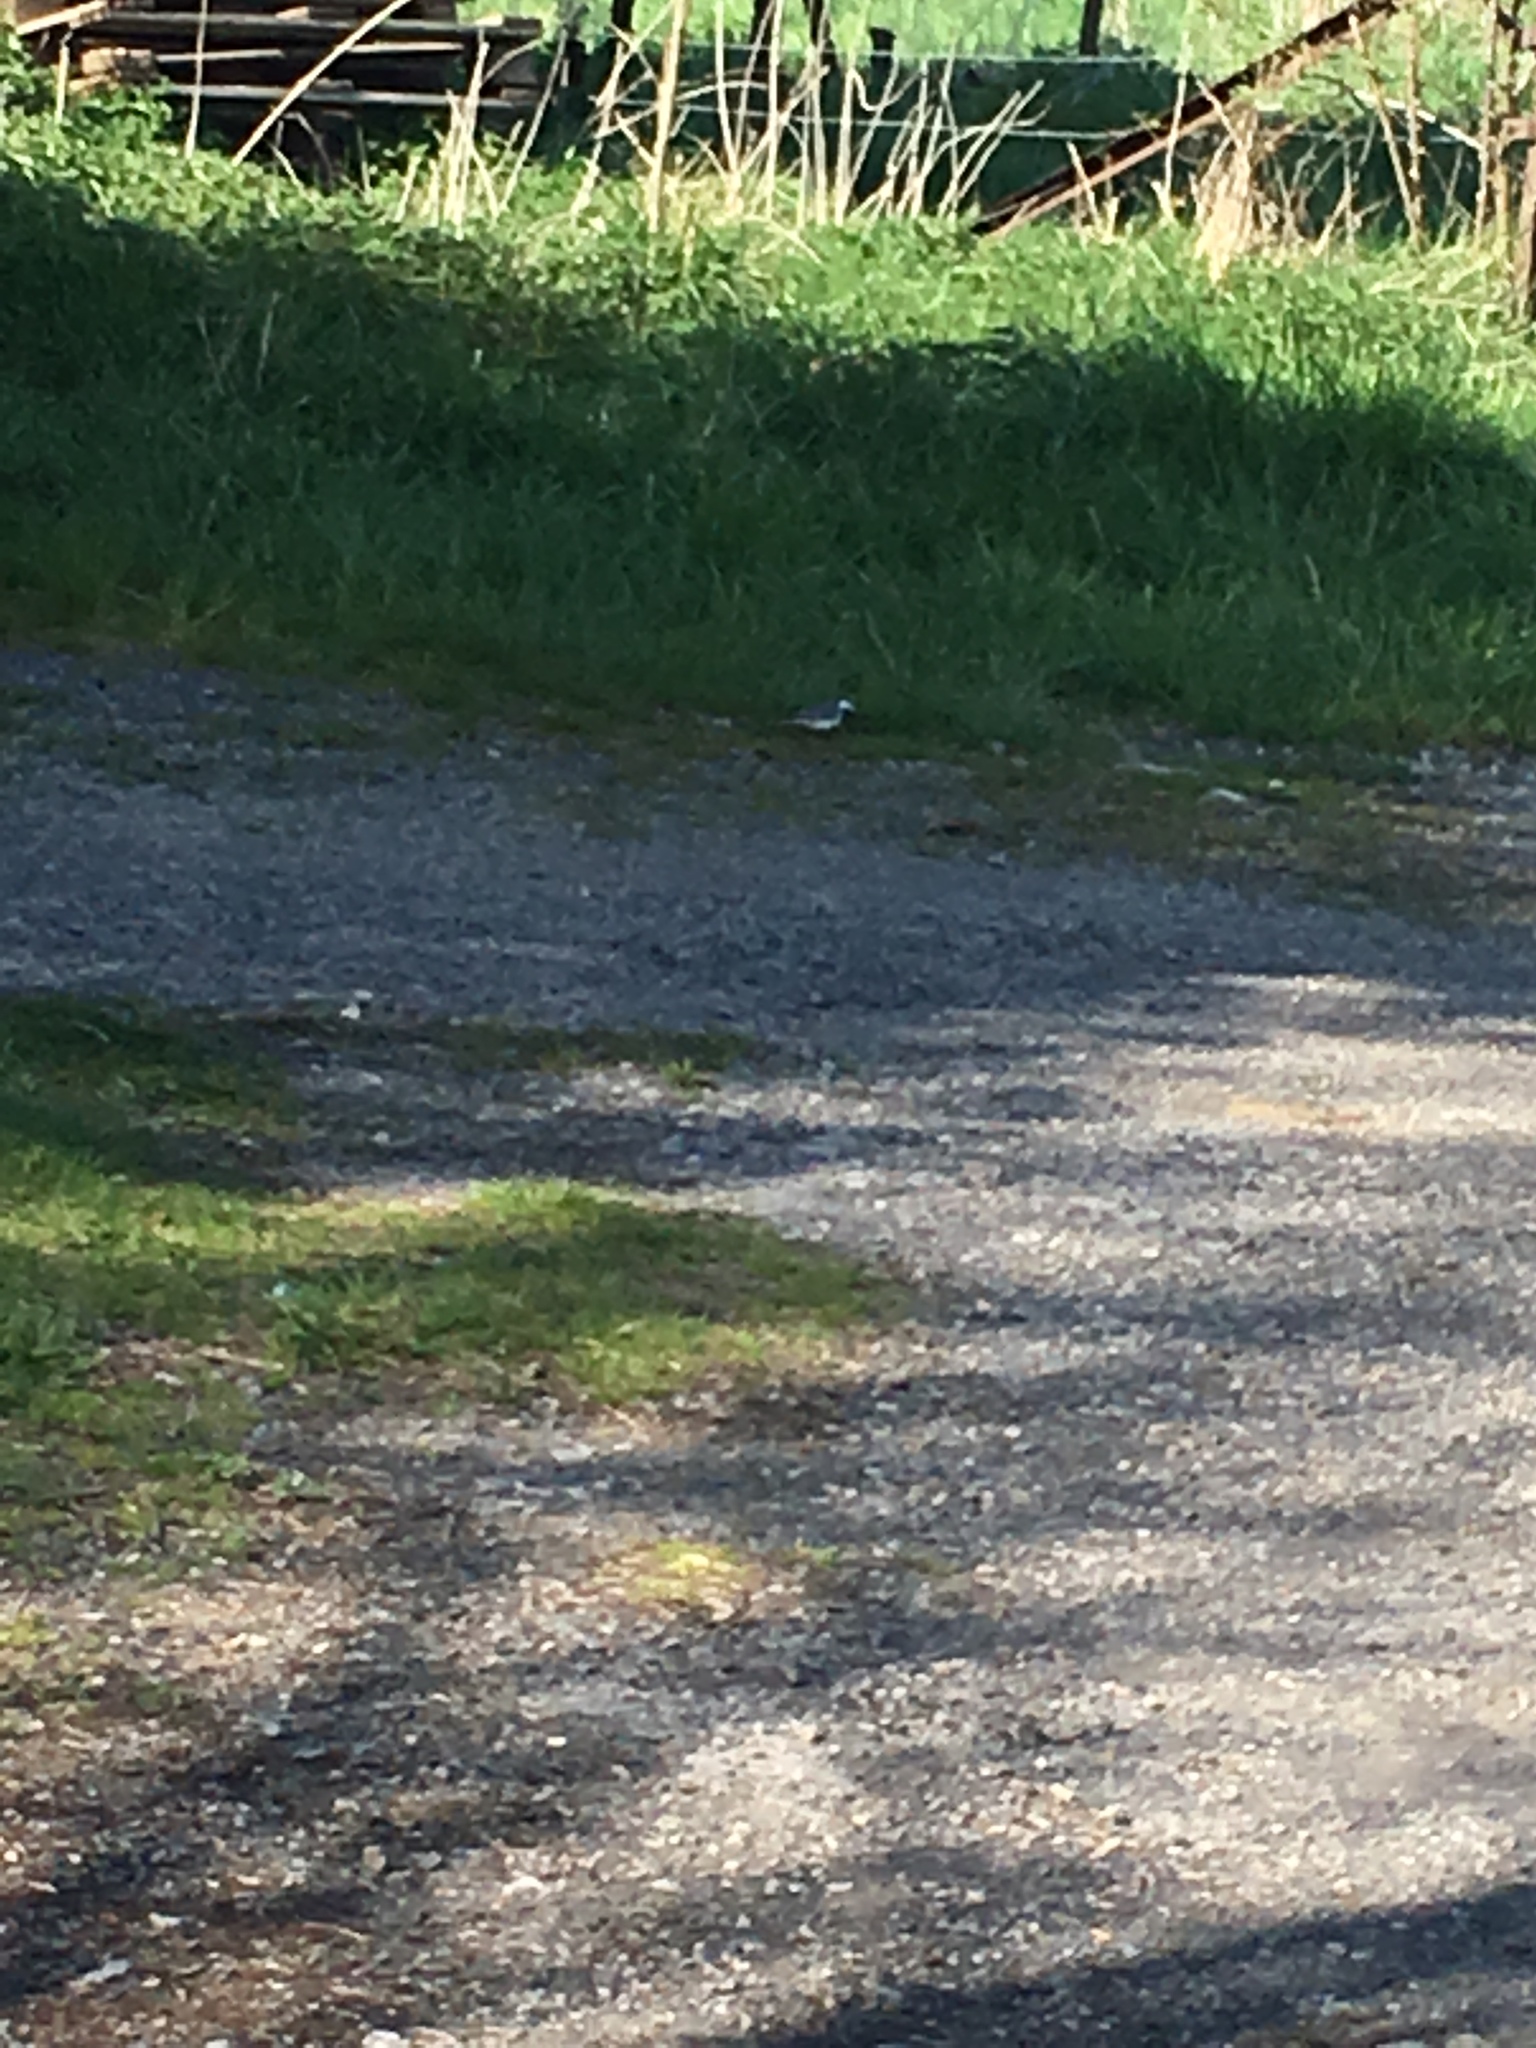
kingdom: Animalia
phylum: Chordata
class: Aves
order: Passeriformes
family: Motacillidae
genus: Motacilla
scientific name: Motacilla alba
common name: White wagtail
